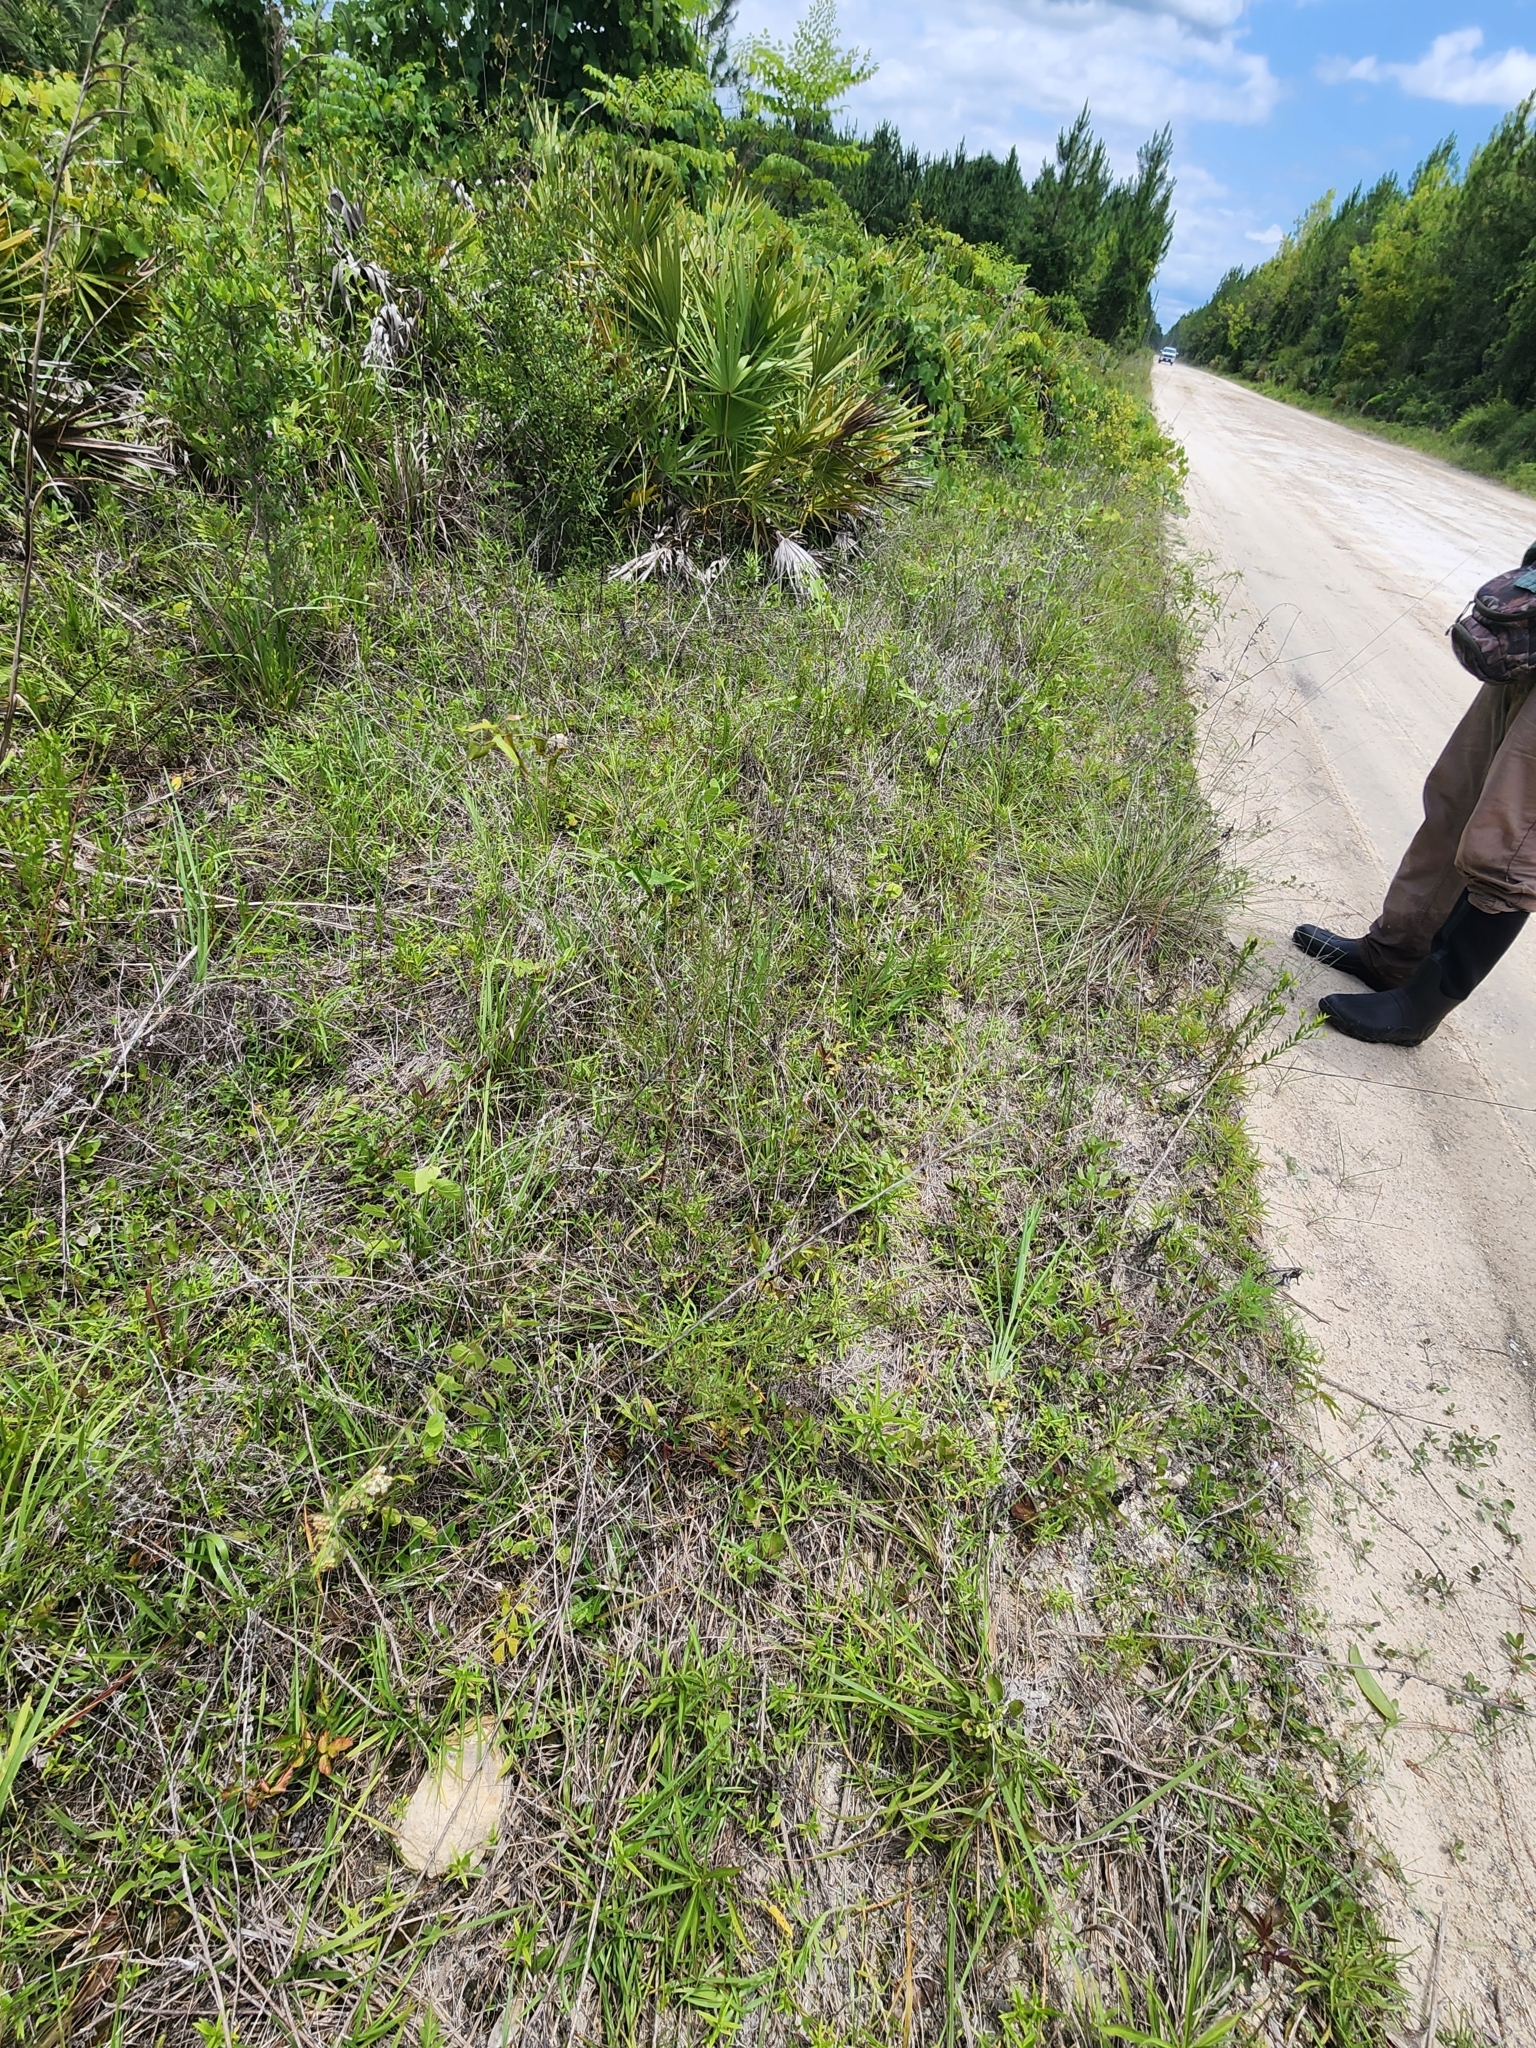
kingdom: Plantae
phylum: Tracheophyta
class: Magnoliopsida
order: Gentianales
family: Apocynaceae
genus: Asclepias
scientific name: Asclepias verticillata
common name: Eastern whorled milkweed
